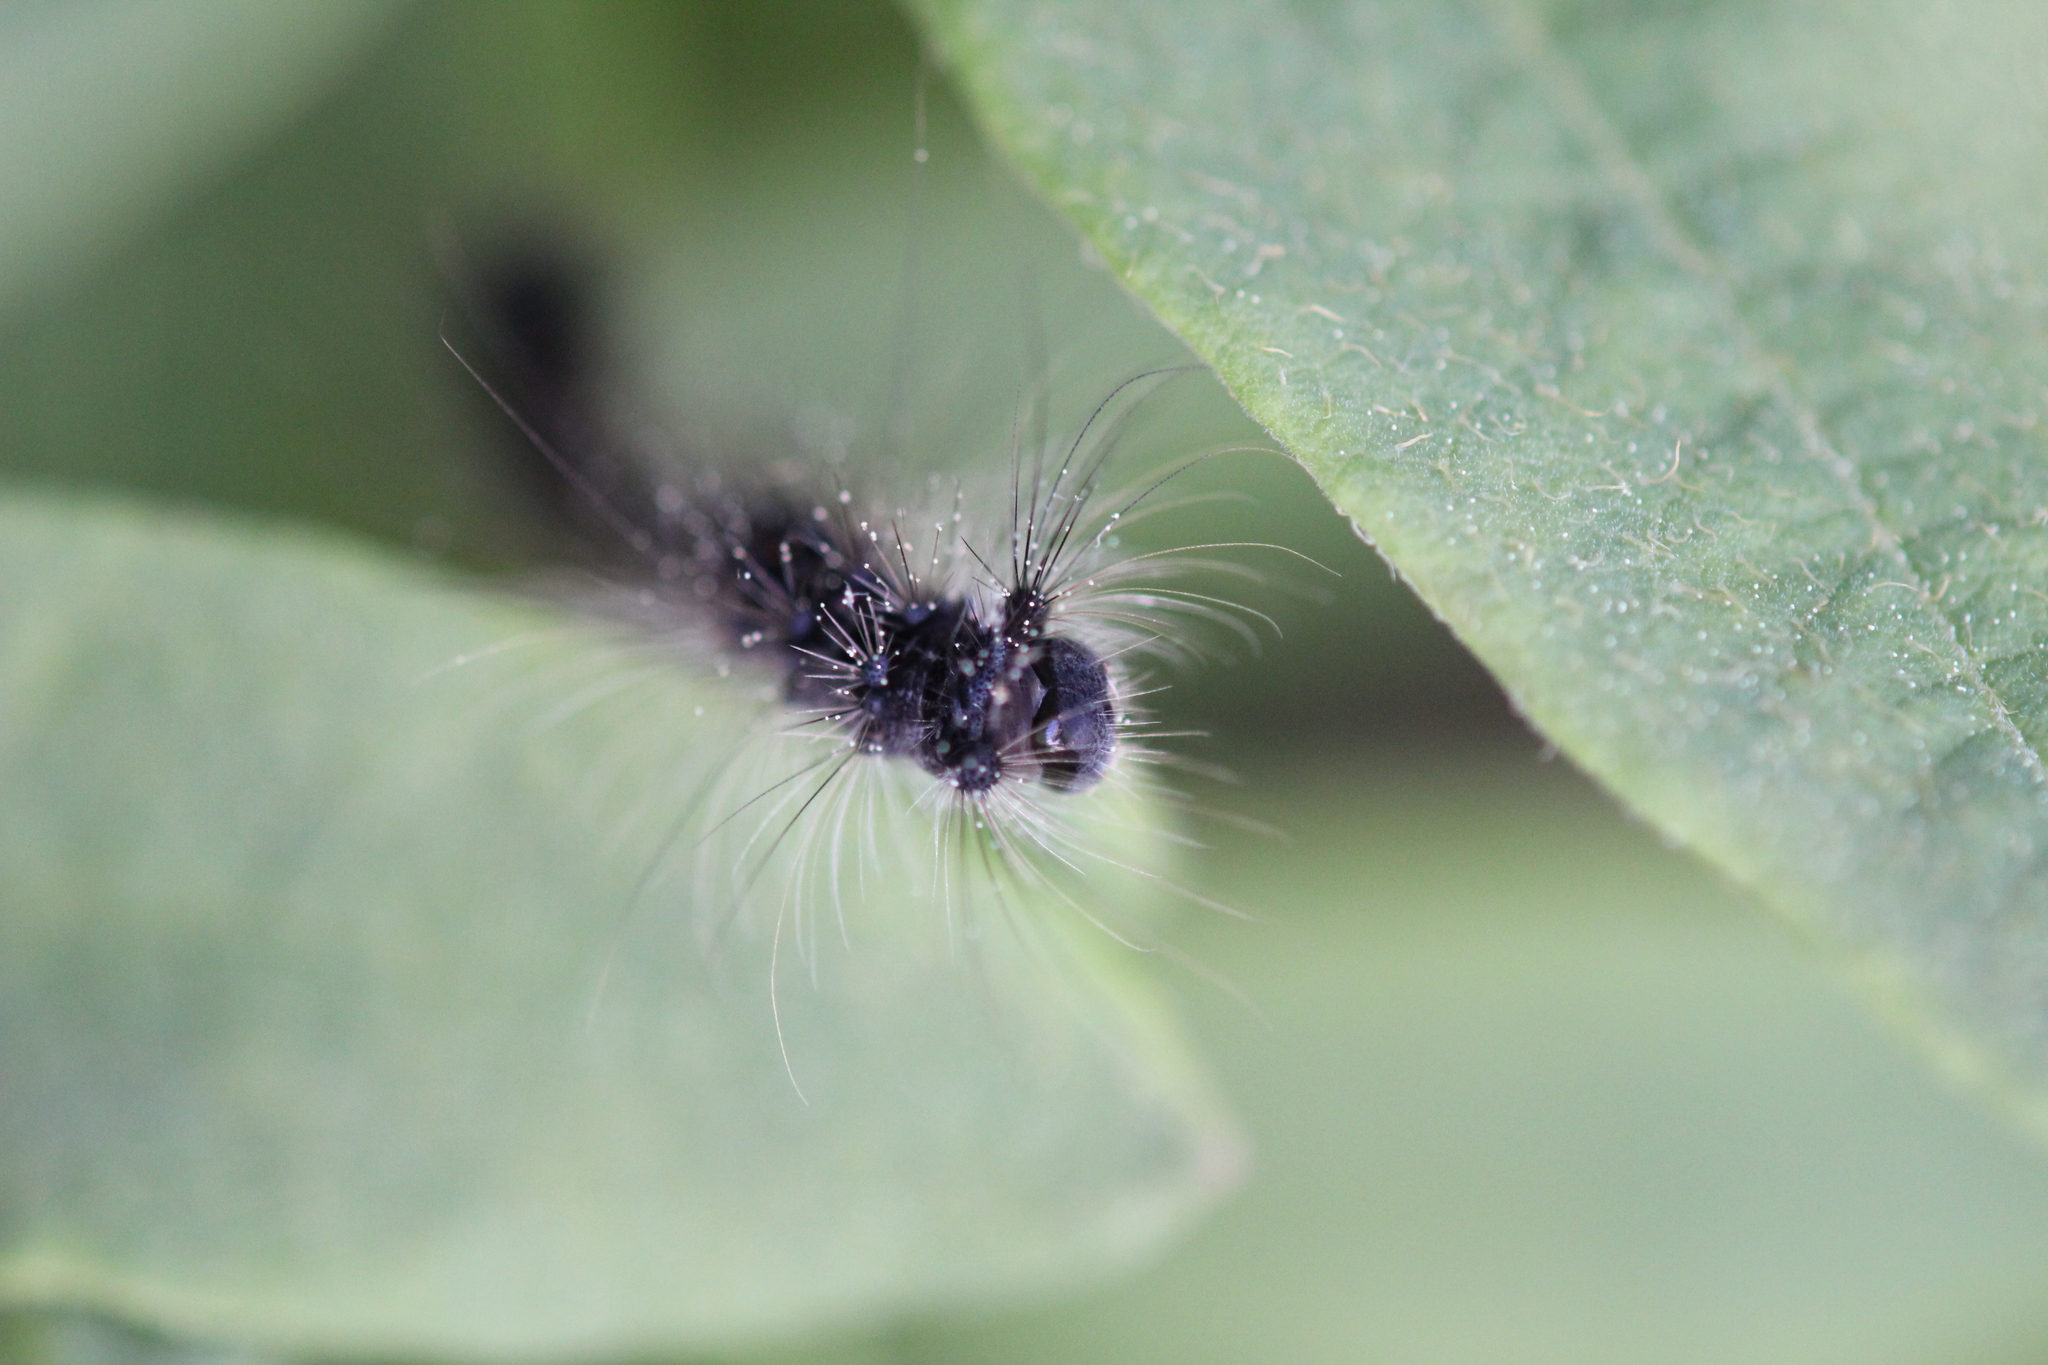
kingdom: Animalia
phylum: Arthropoda
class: Insecta
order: Lepidoptera
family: Erebidae
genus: Lymantria
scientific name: Lymantria dispar
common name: Gypsy moth
